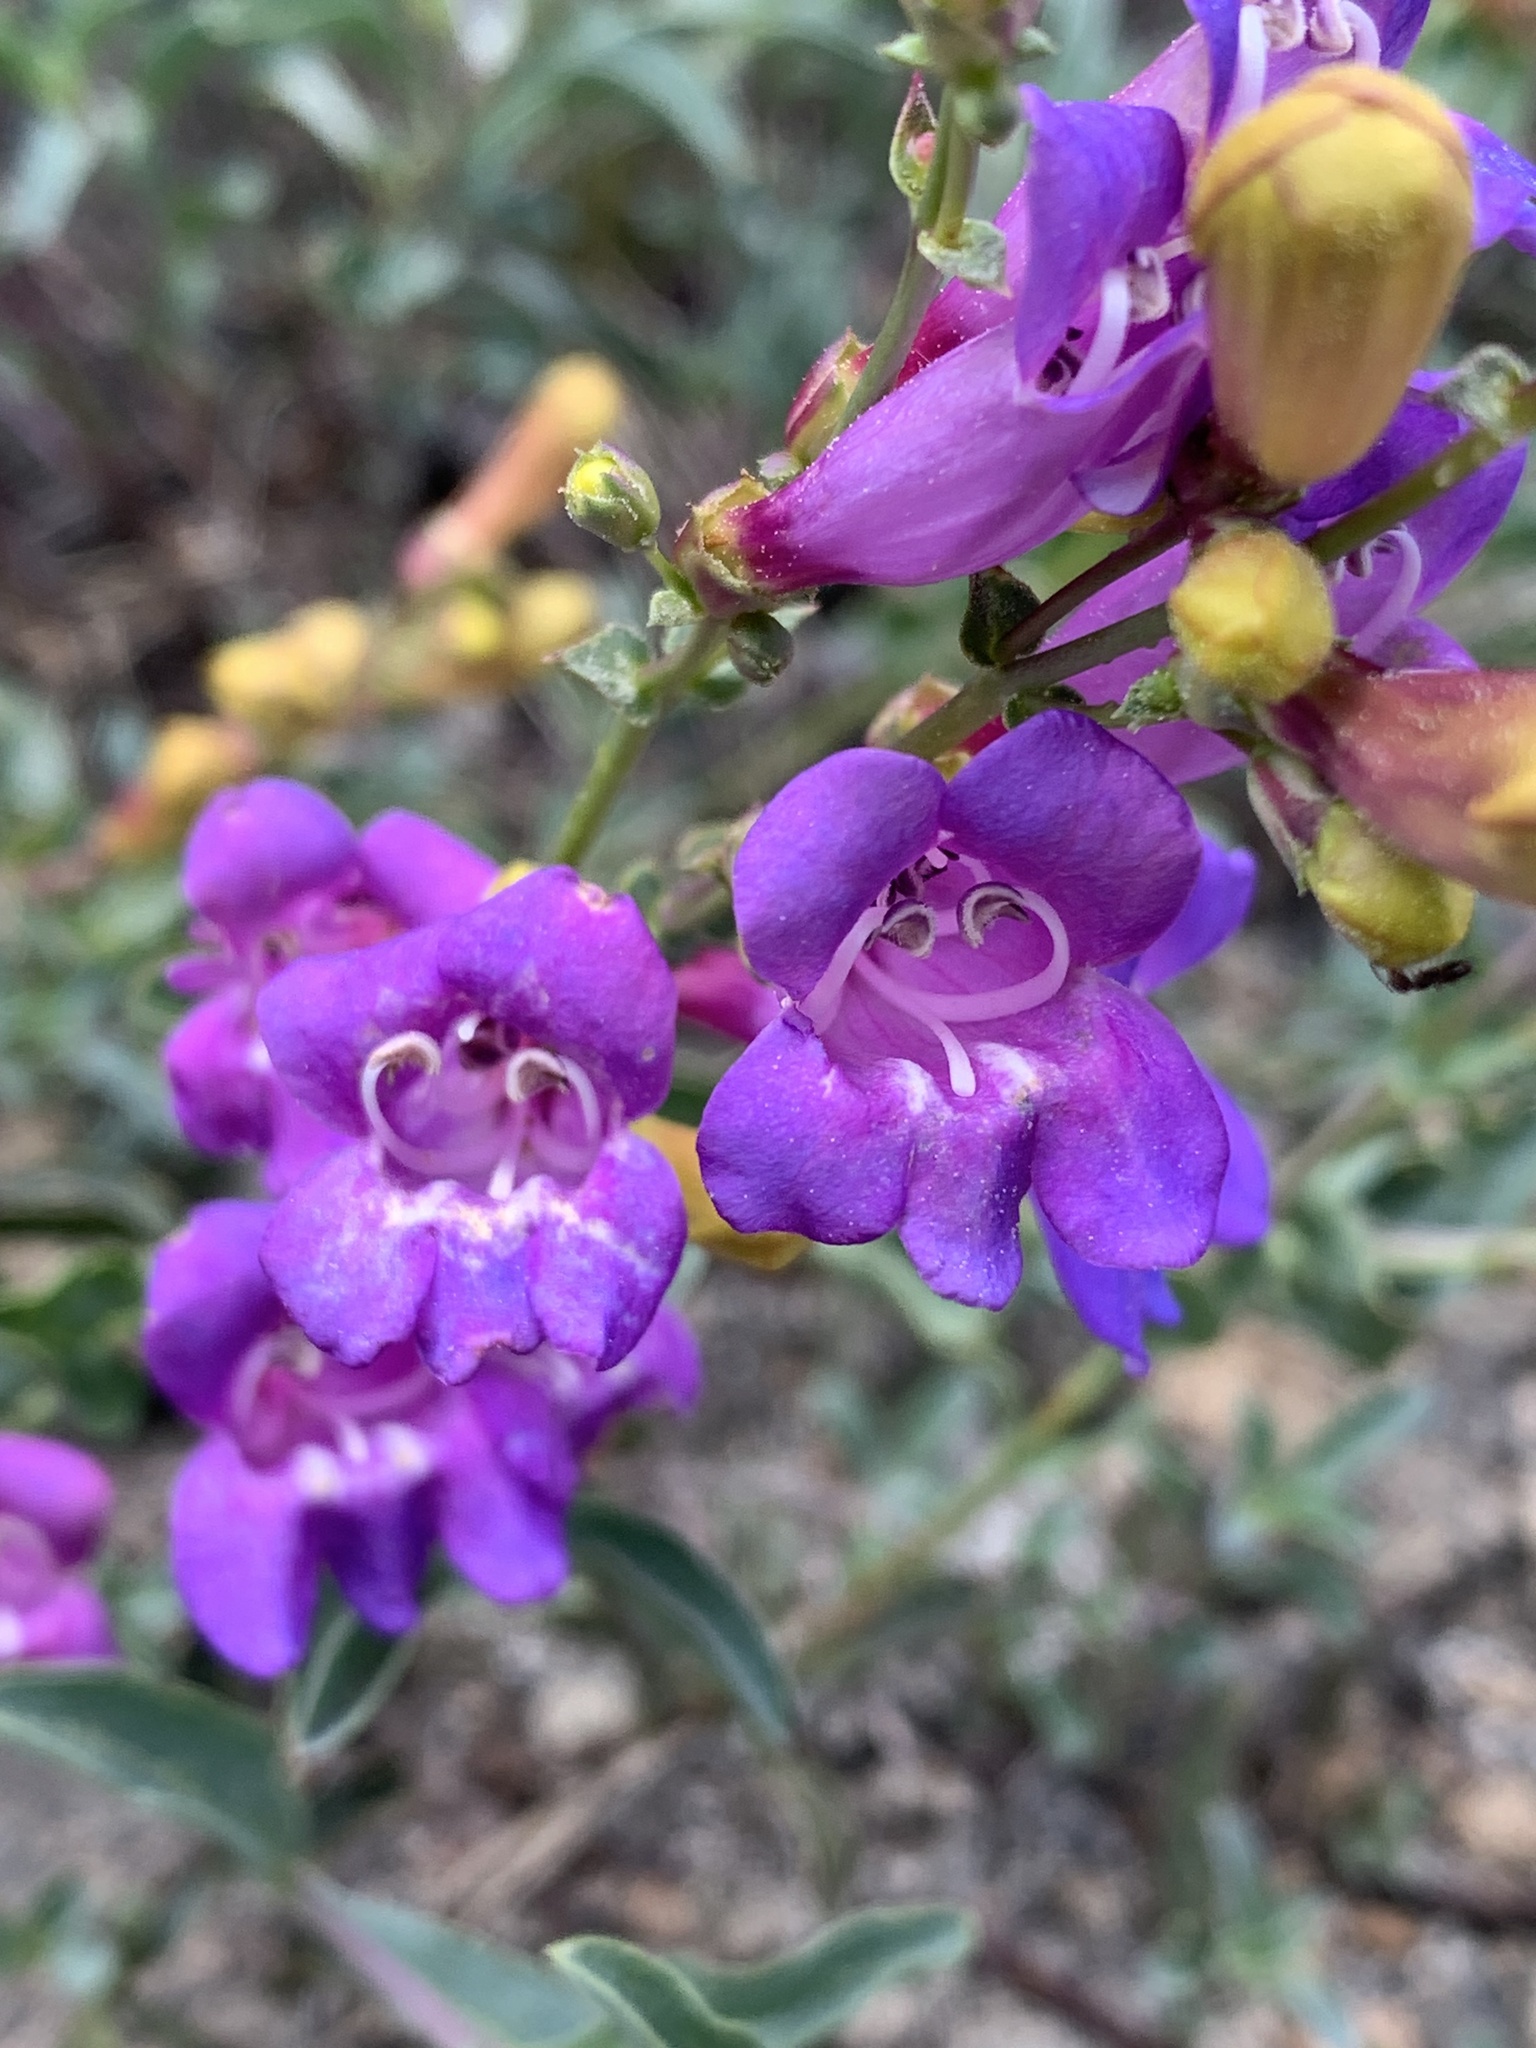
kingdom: Plantae
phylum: Tracheophyta
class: Magnoliopsida
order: Lamiales
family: Plantaginaceae
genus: Penstemon
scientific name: Penstemon azureus
